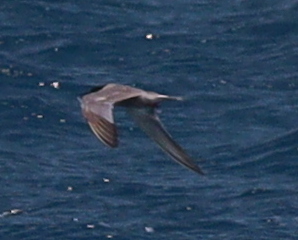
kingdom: Animalia
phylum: Chordata
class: Aves
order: Charadriiformes
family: Laridae
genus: Sterna
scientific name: Sterna repressa
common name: White-cheeked tern
